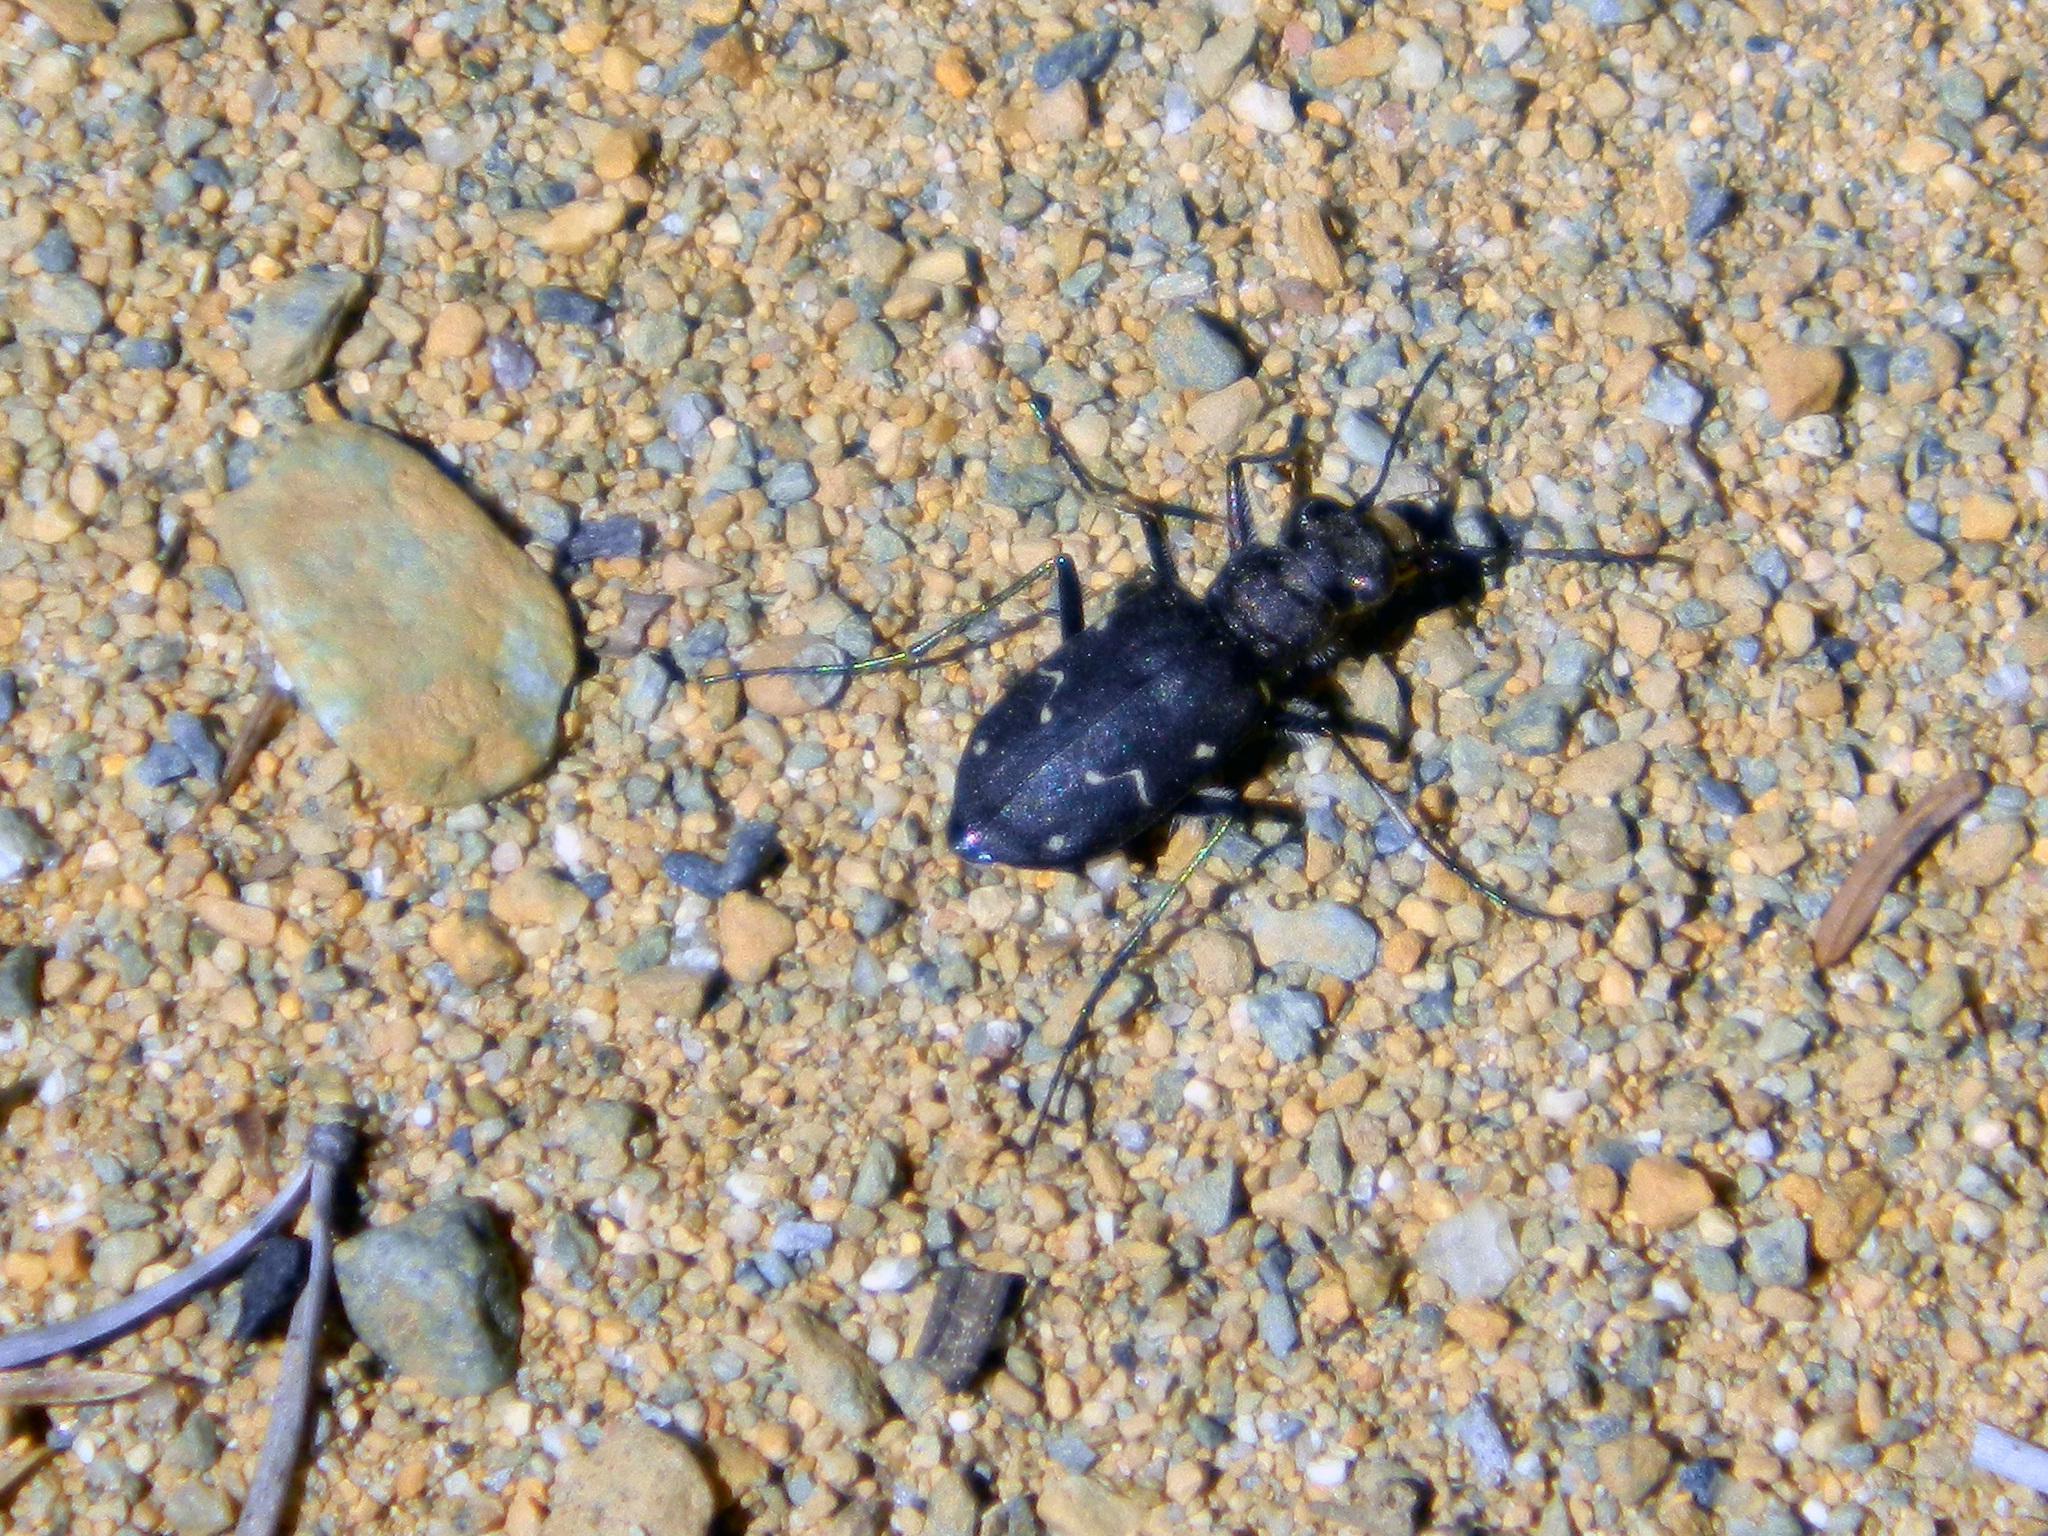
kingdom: Animalia
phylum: Arthropoda
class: Insecta
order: Coleoptera
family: Carabidae
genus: Cicindela
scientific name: Cicindela longilabris
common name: Boreal long-lipped tiger beetle
